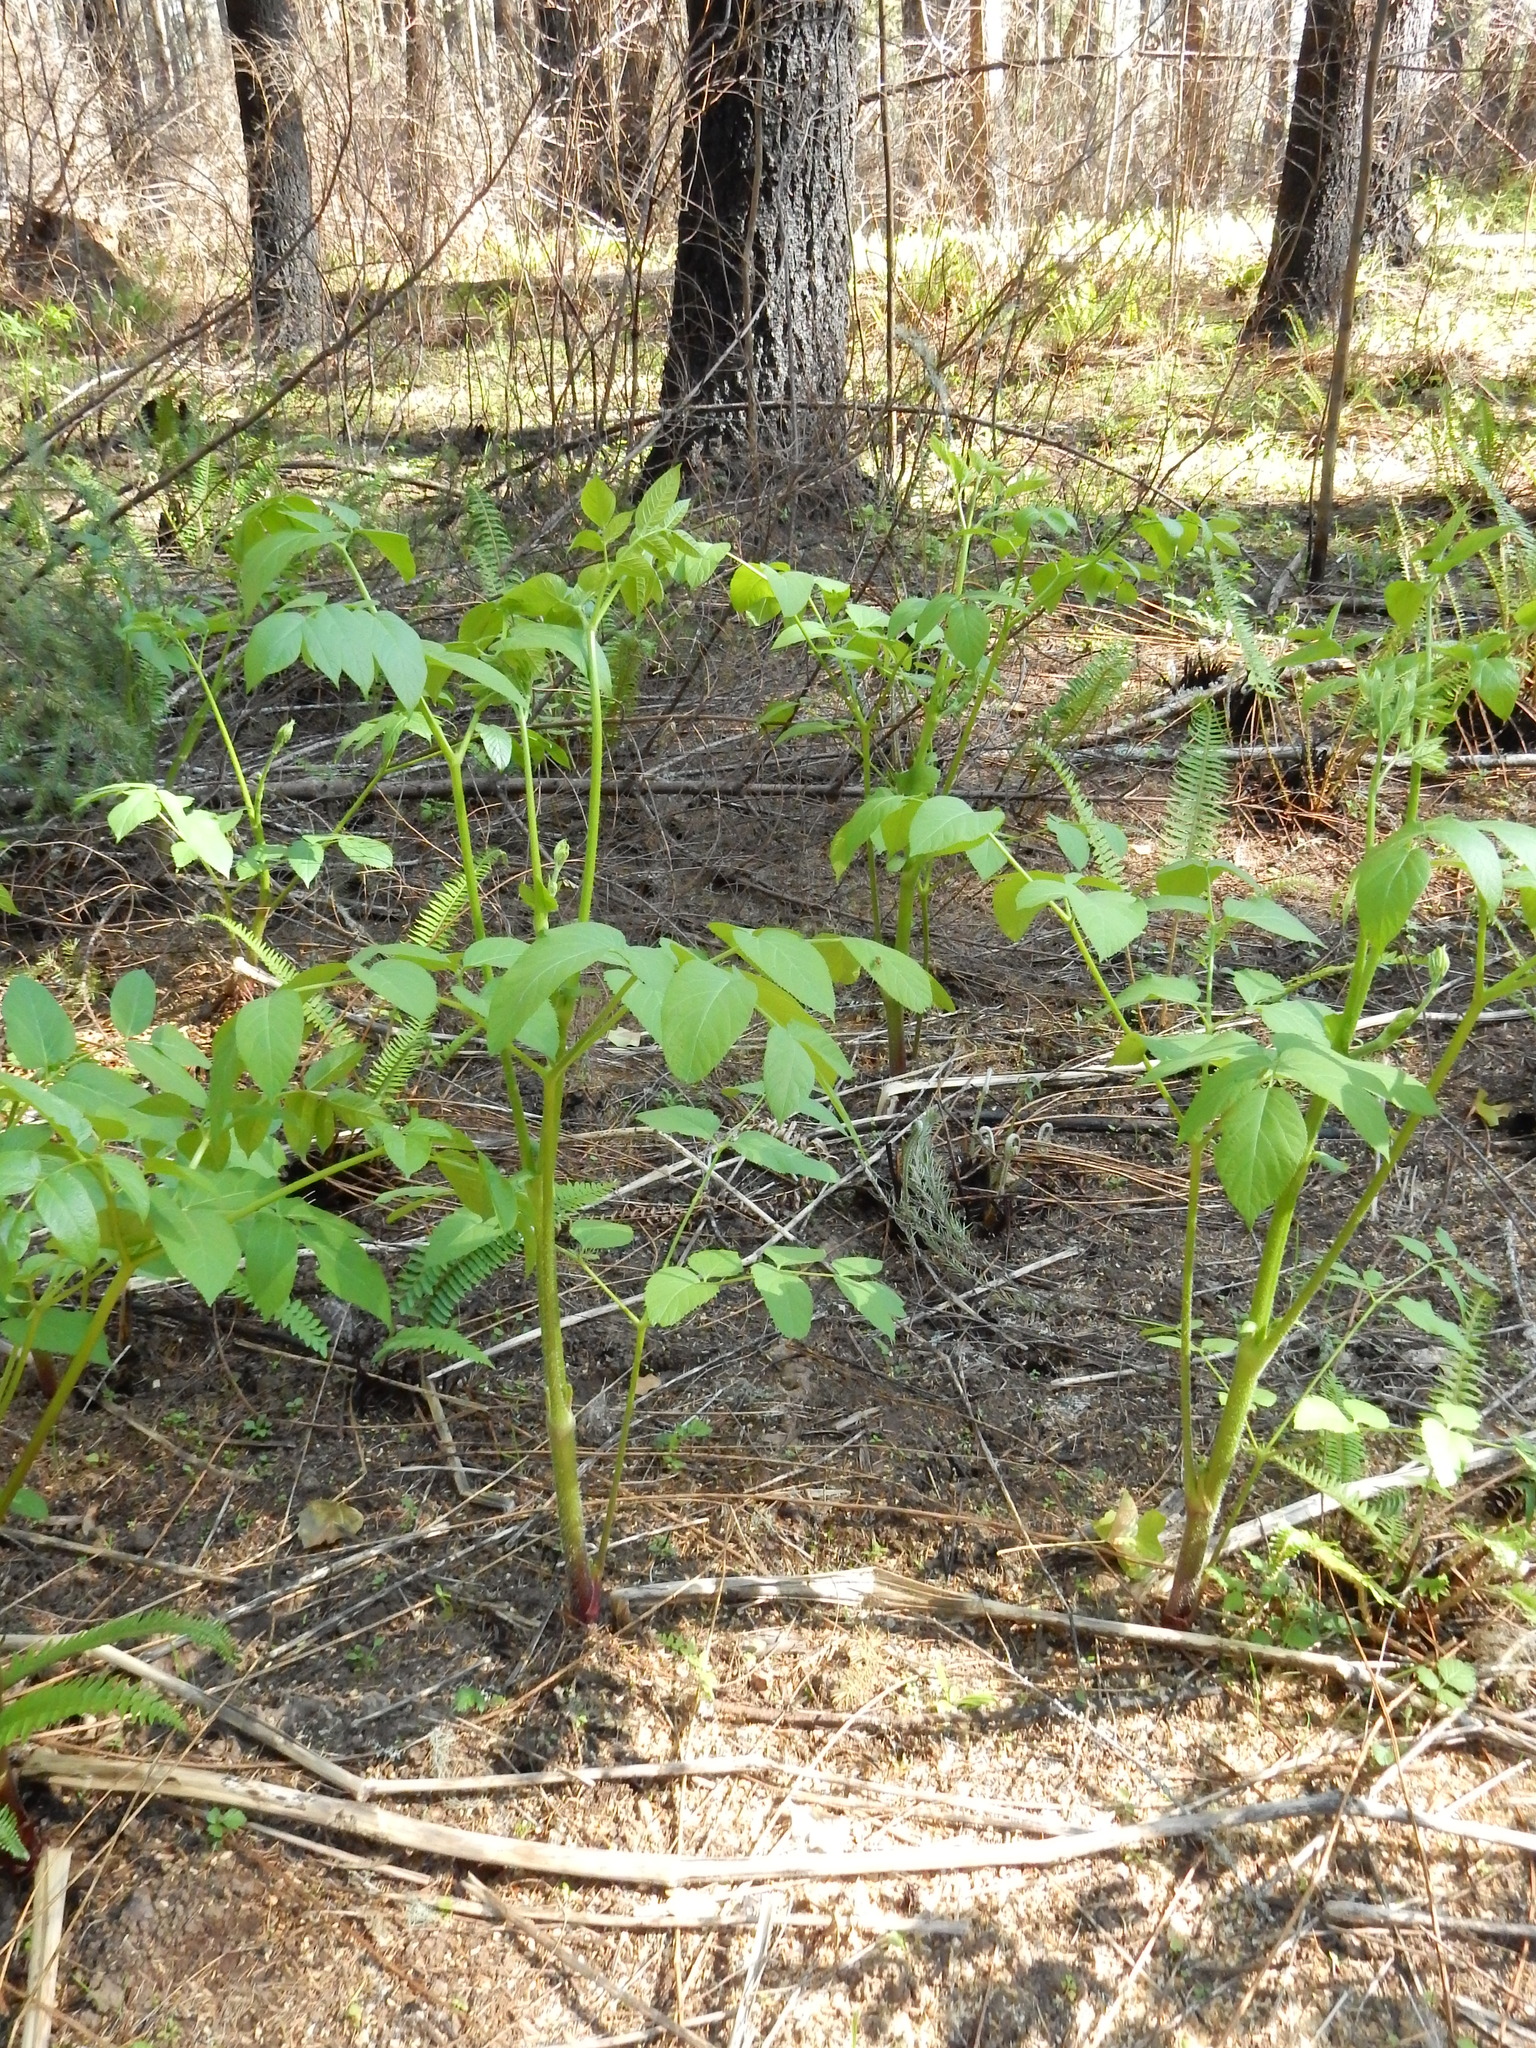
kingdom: Plantae
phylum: Tracheophyta
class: Magnoliopsida
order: Apiales
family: Araliaceae
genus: Aralia
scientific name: Aralia californica
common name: California-ginseng
